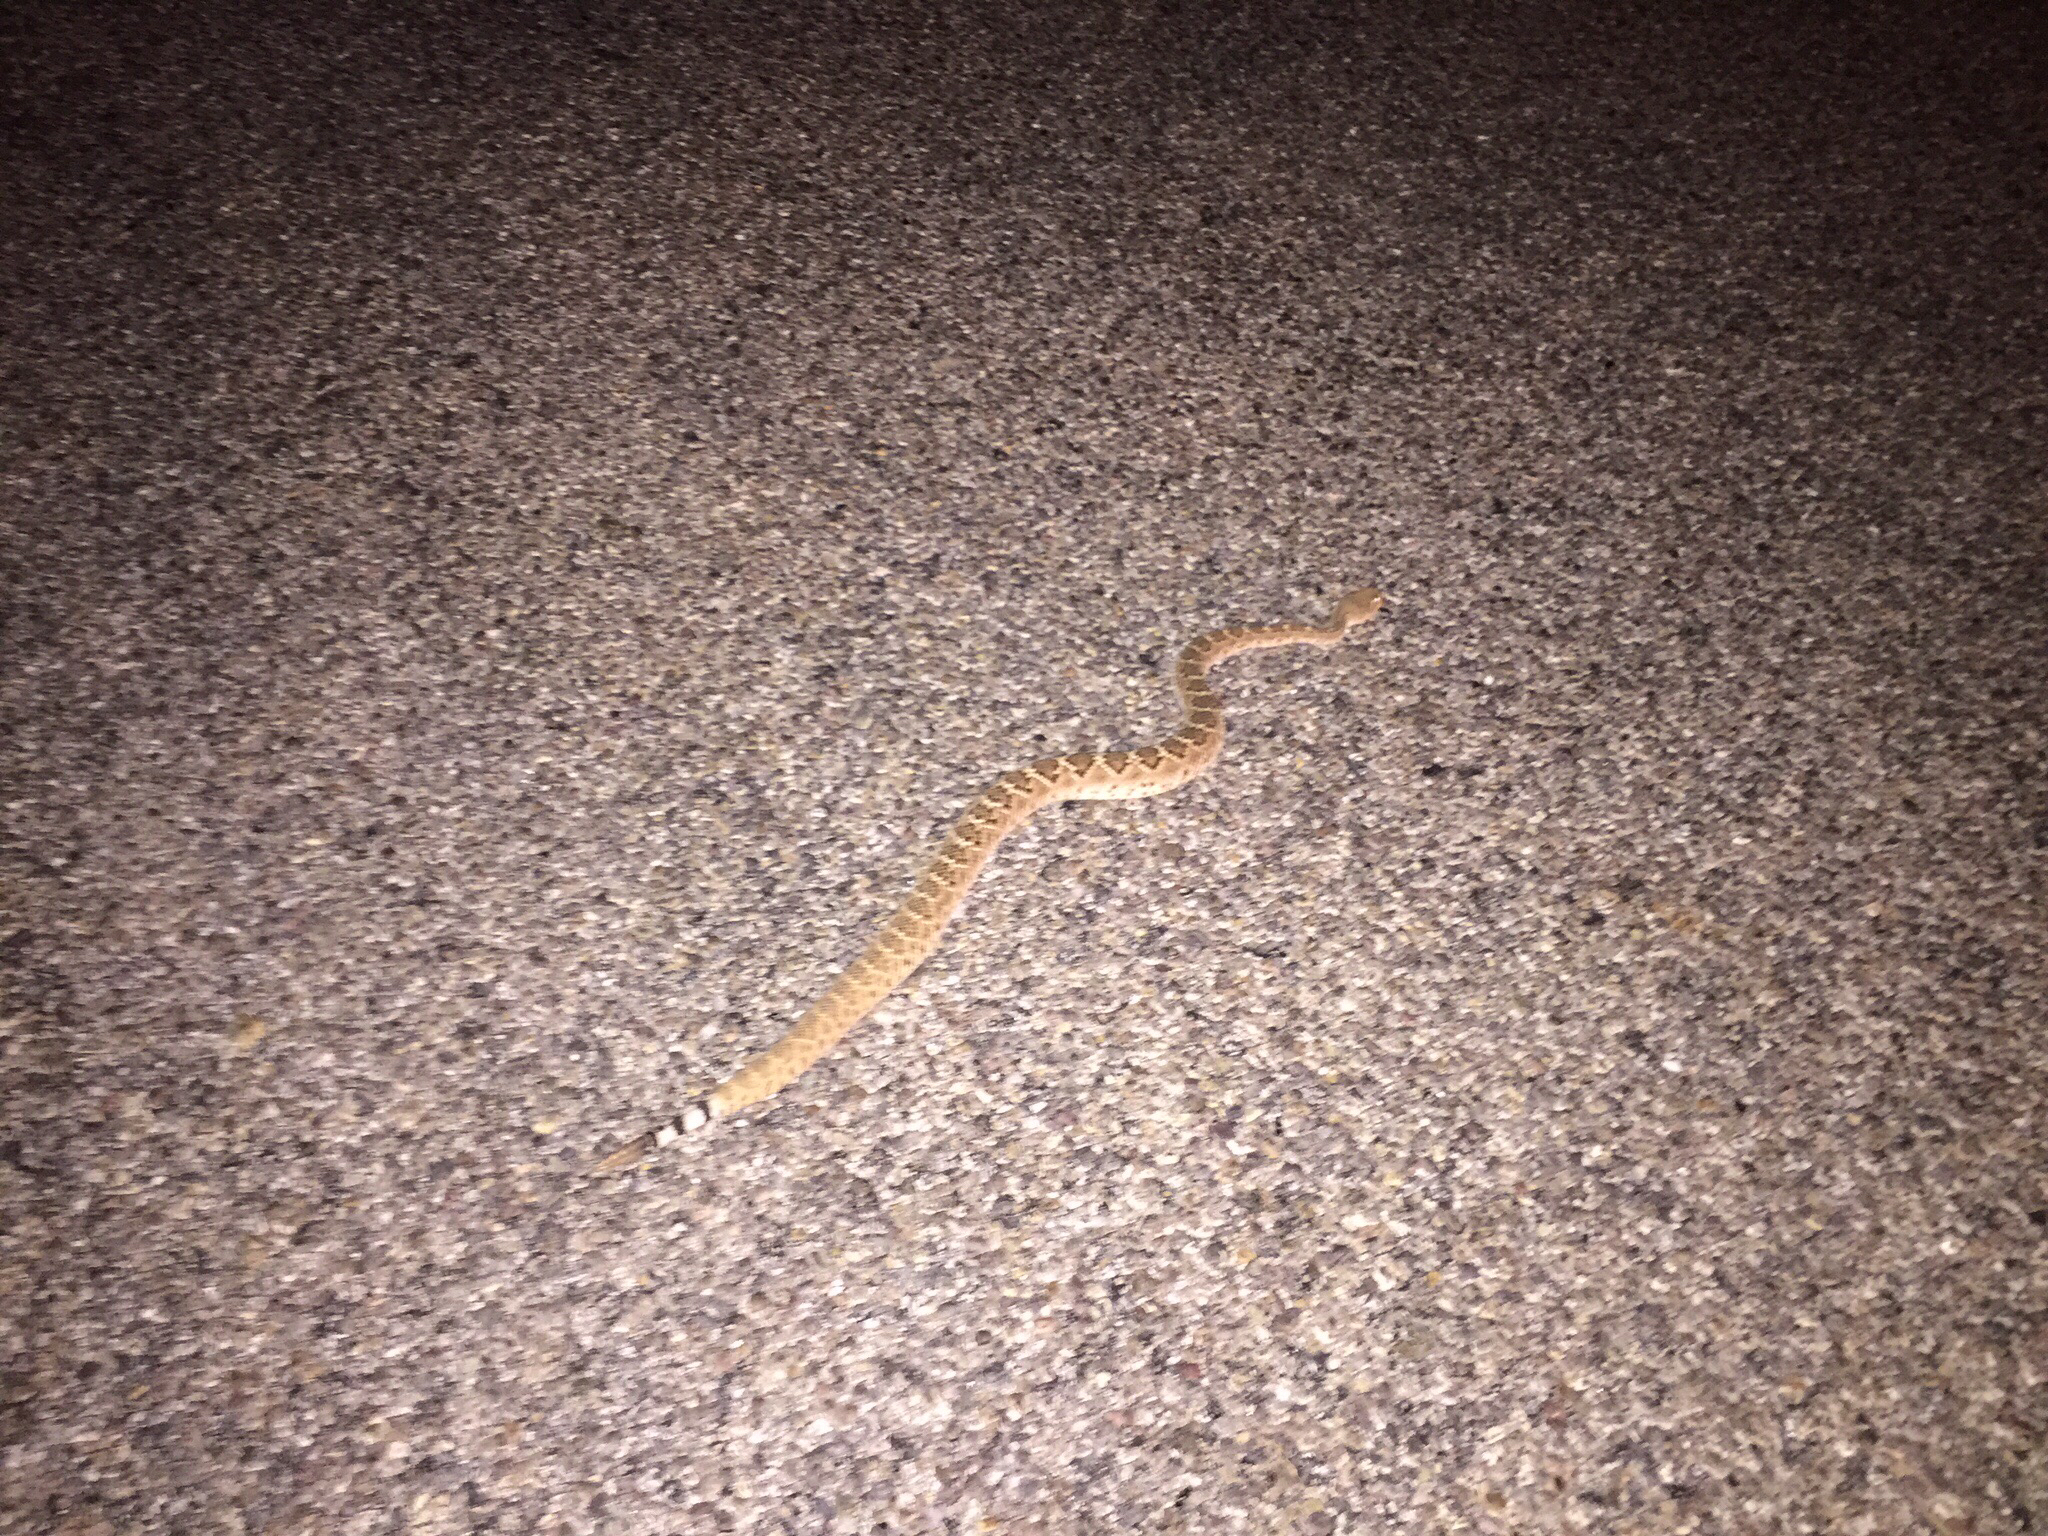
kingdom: Animalia
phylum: Chordata
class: Squamata
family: Viperidae
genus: Crotalus
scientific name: Crotalus atrox
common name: Western diamond-backed rattlesnake
